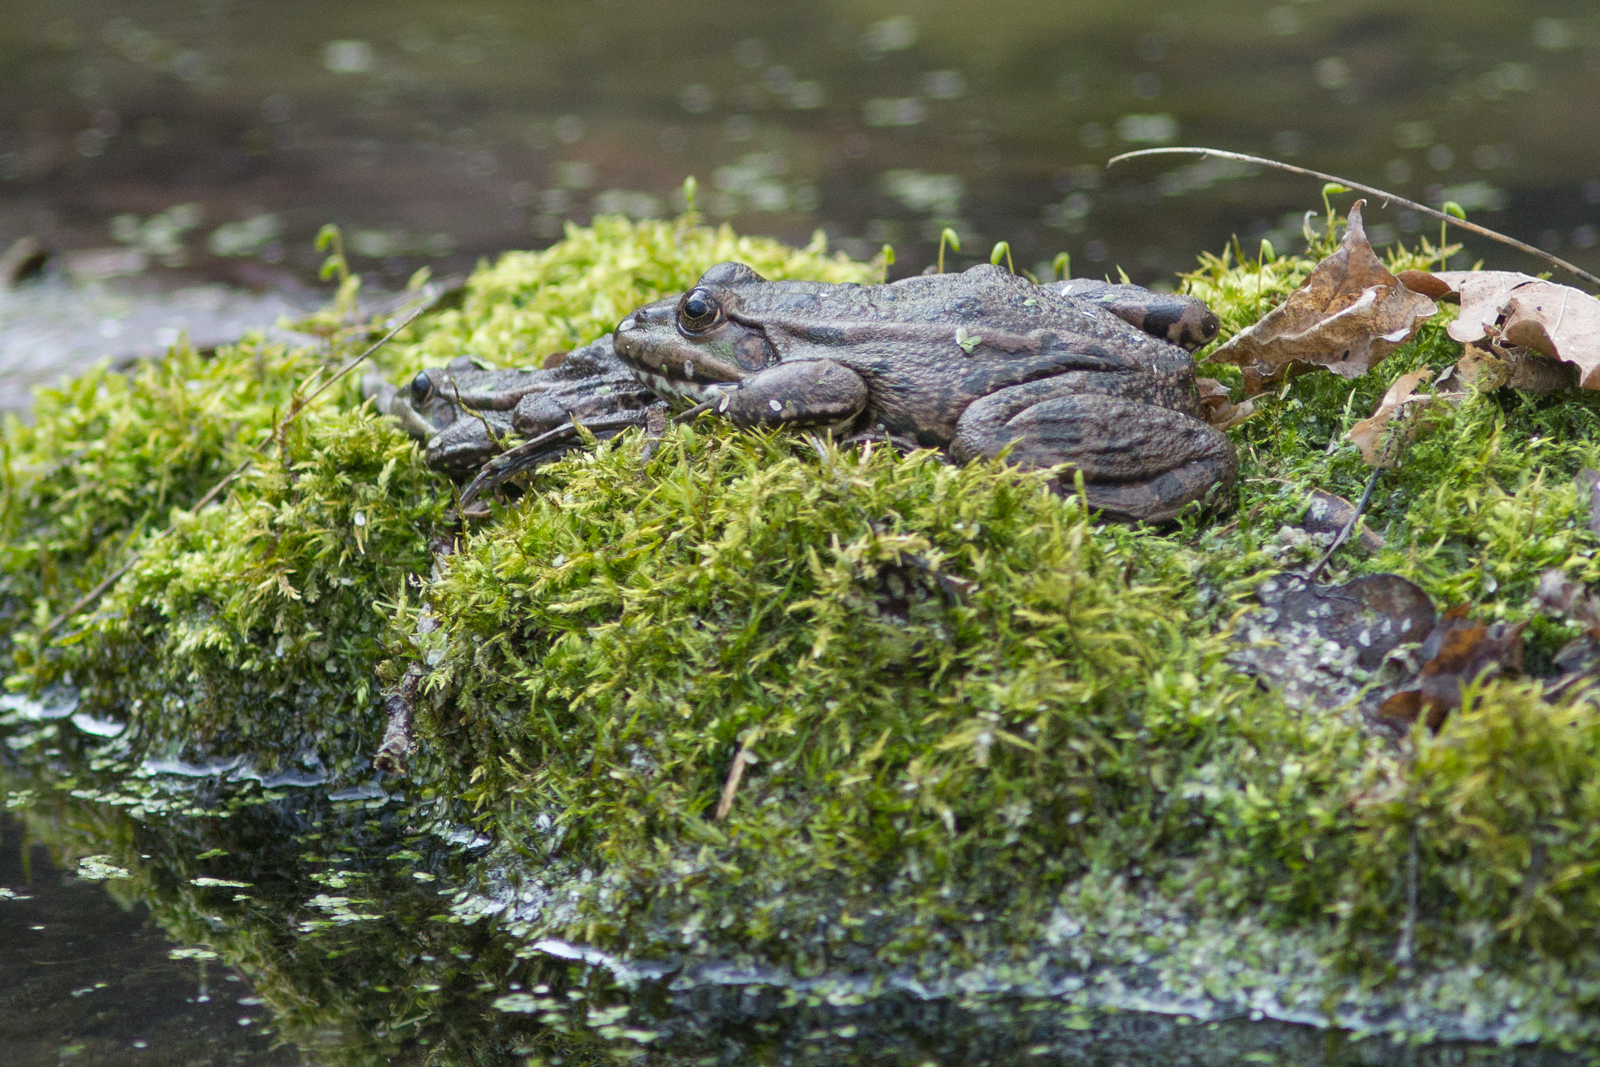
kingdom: Animalia
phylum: Chordata
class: Amphibia
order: Anura
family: Ranidae
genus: Pelophylax
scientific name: Pelophylax ridibundus
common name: Marsh frog
